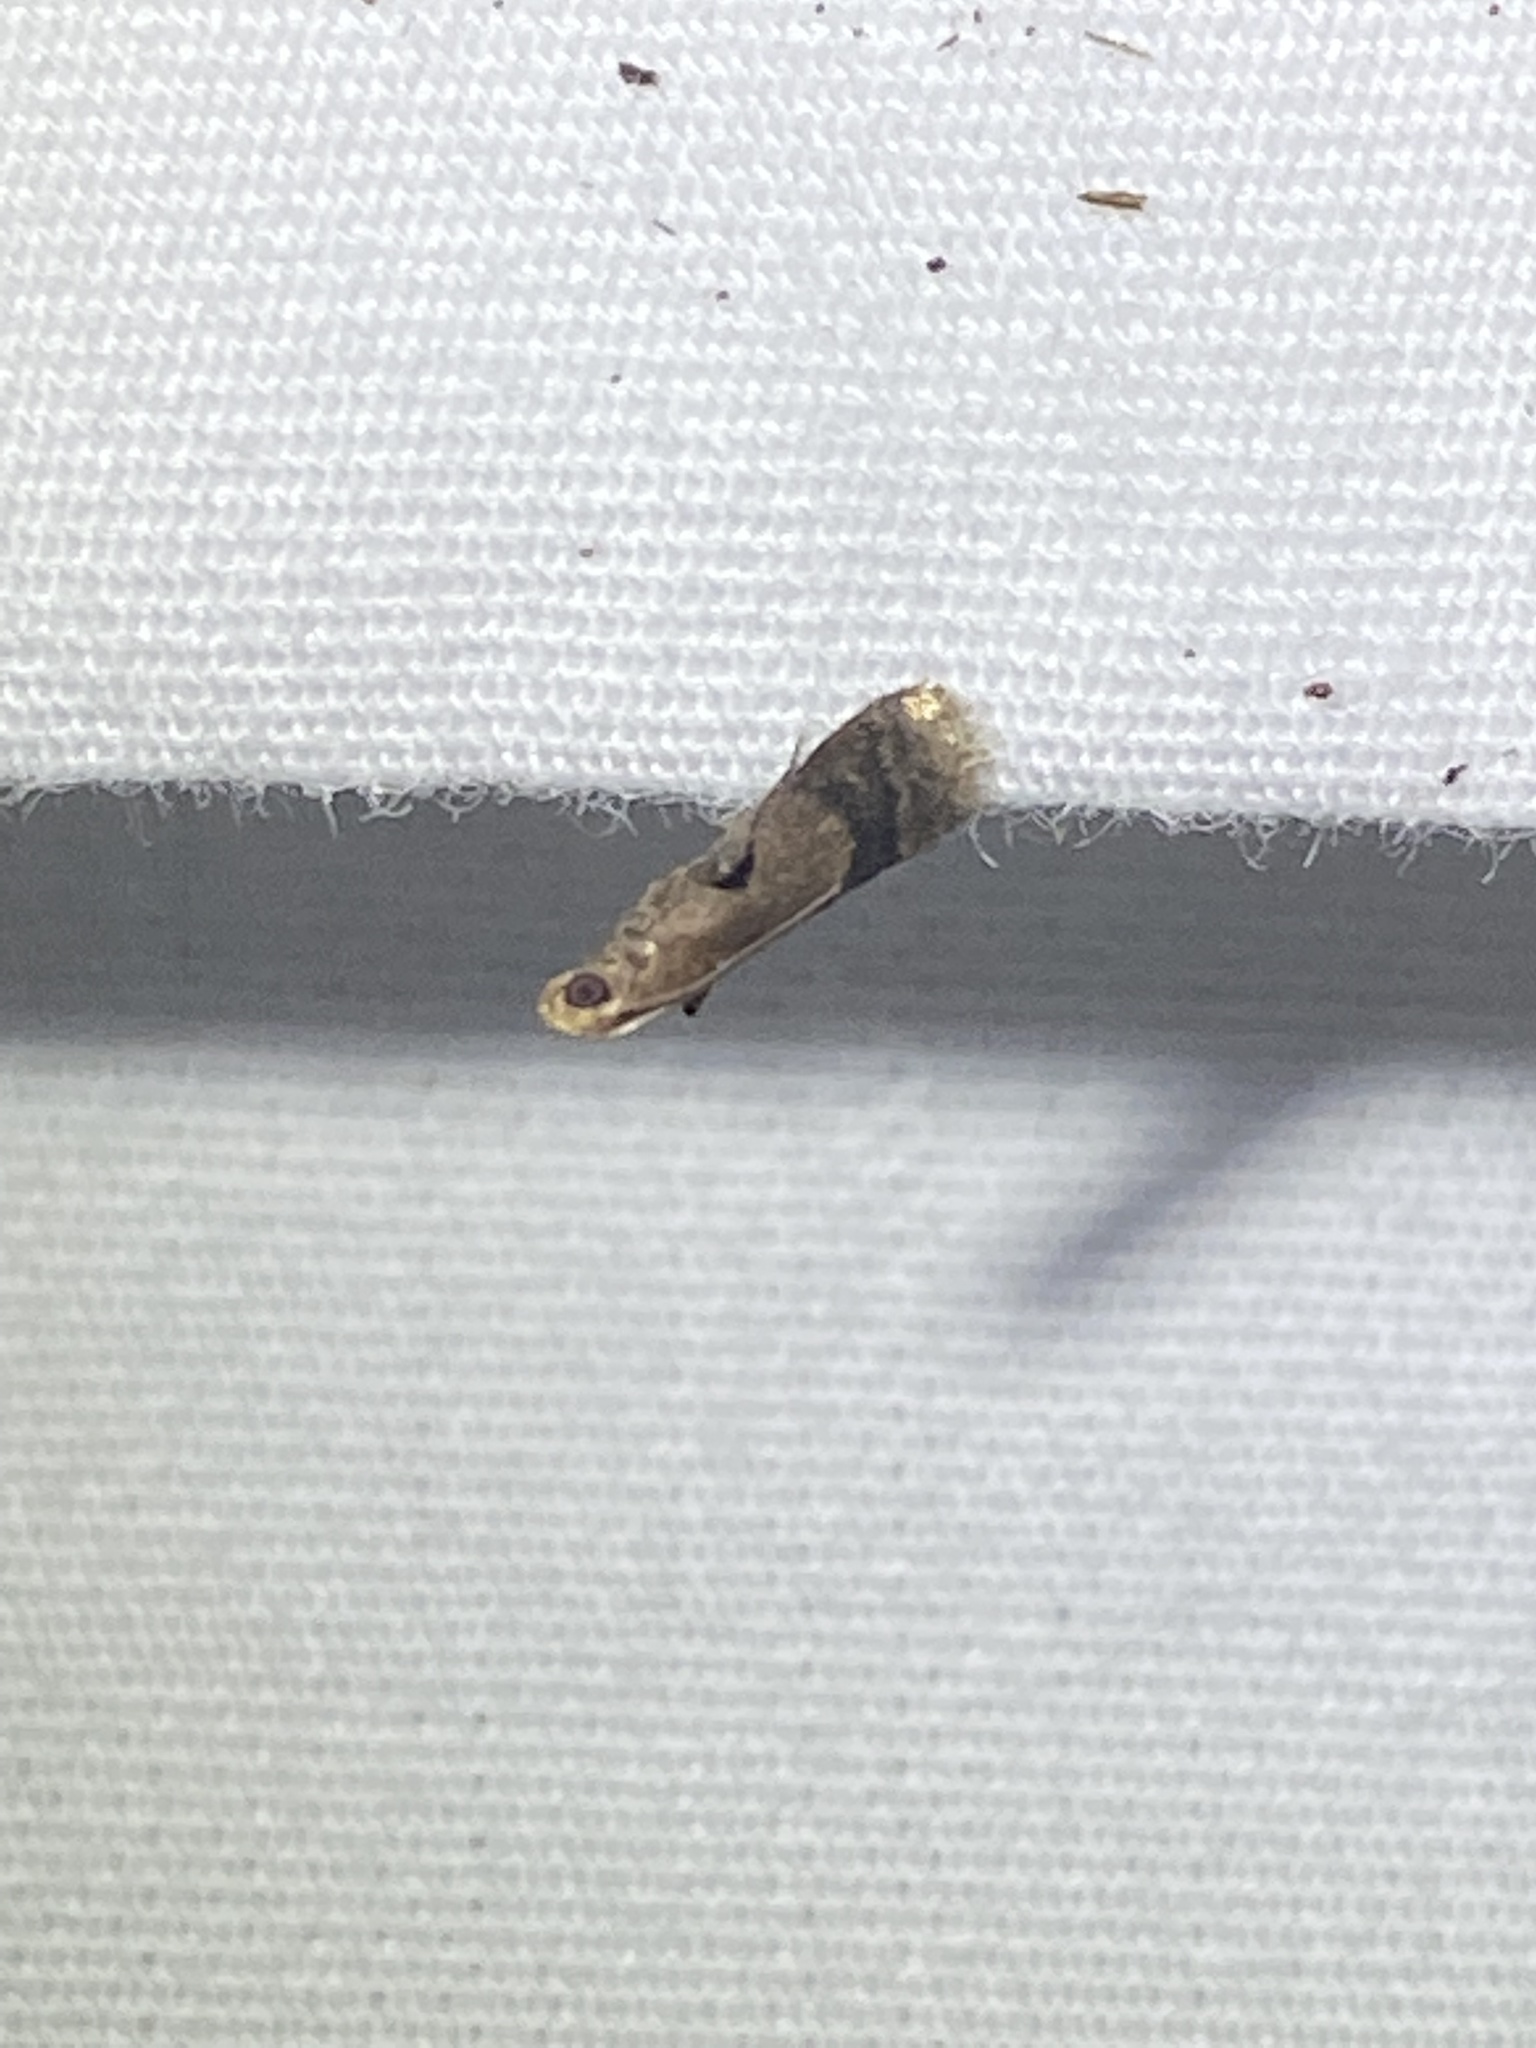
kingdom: Animalia
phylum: Arthropoda
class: Insecta
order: Lepidoptera
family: Pyralidae
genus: Eulogia
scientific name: Eulogia ochrifrontella
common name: Broad-banded eulogia moth
